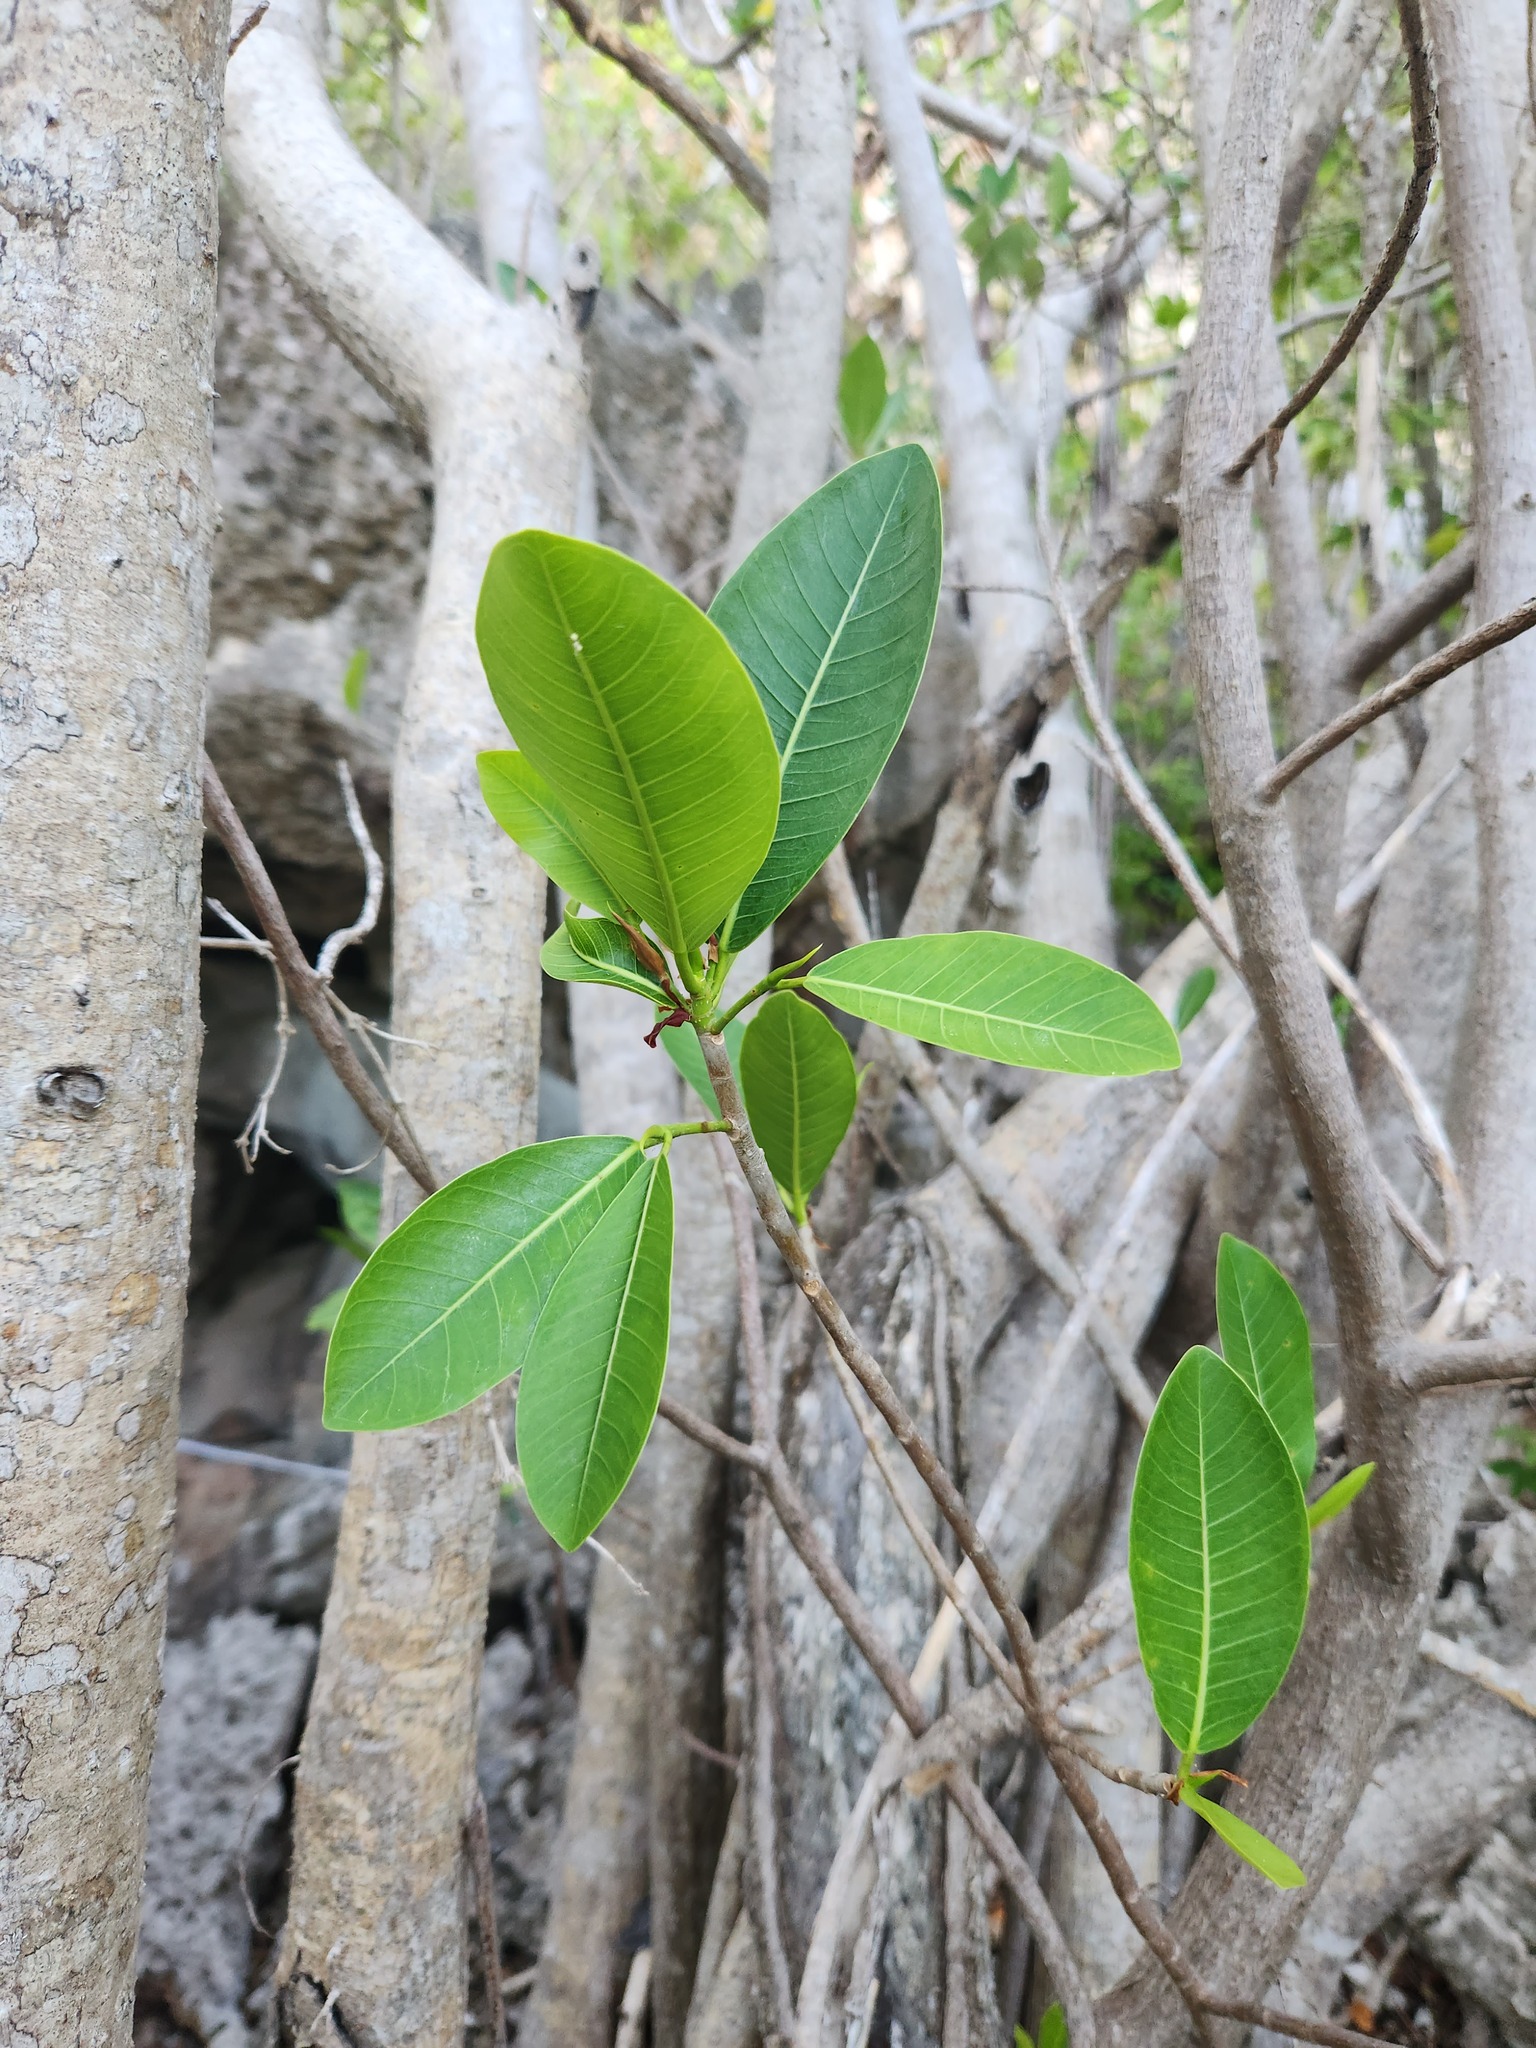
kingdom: Plantae
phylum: Tracheophyta
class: Magnoliopsida
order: Rosales
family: Moraceae
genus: Ficus
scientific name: Ficus aurea
